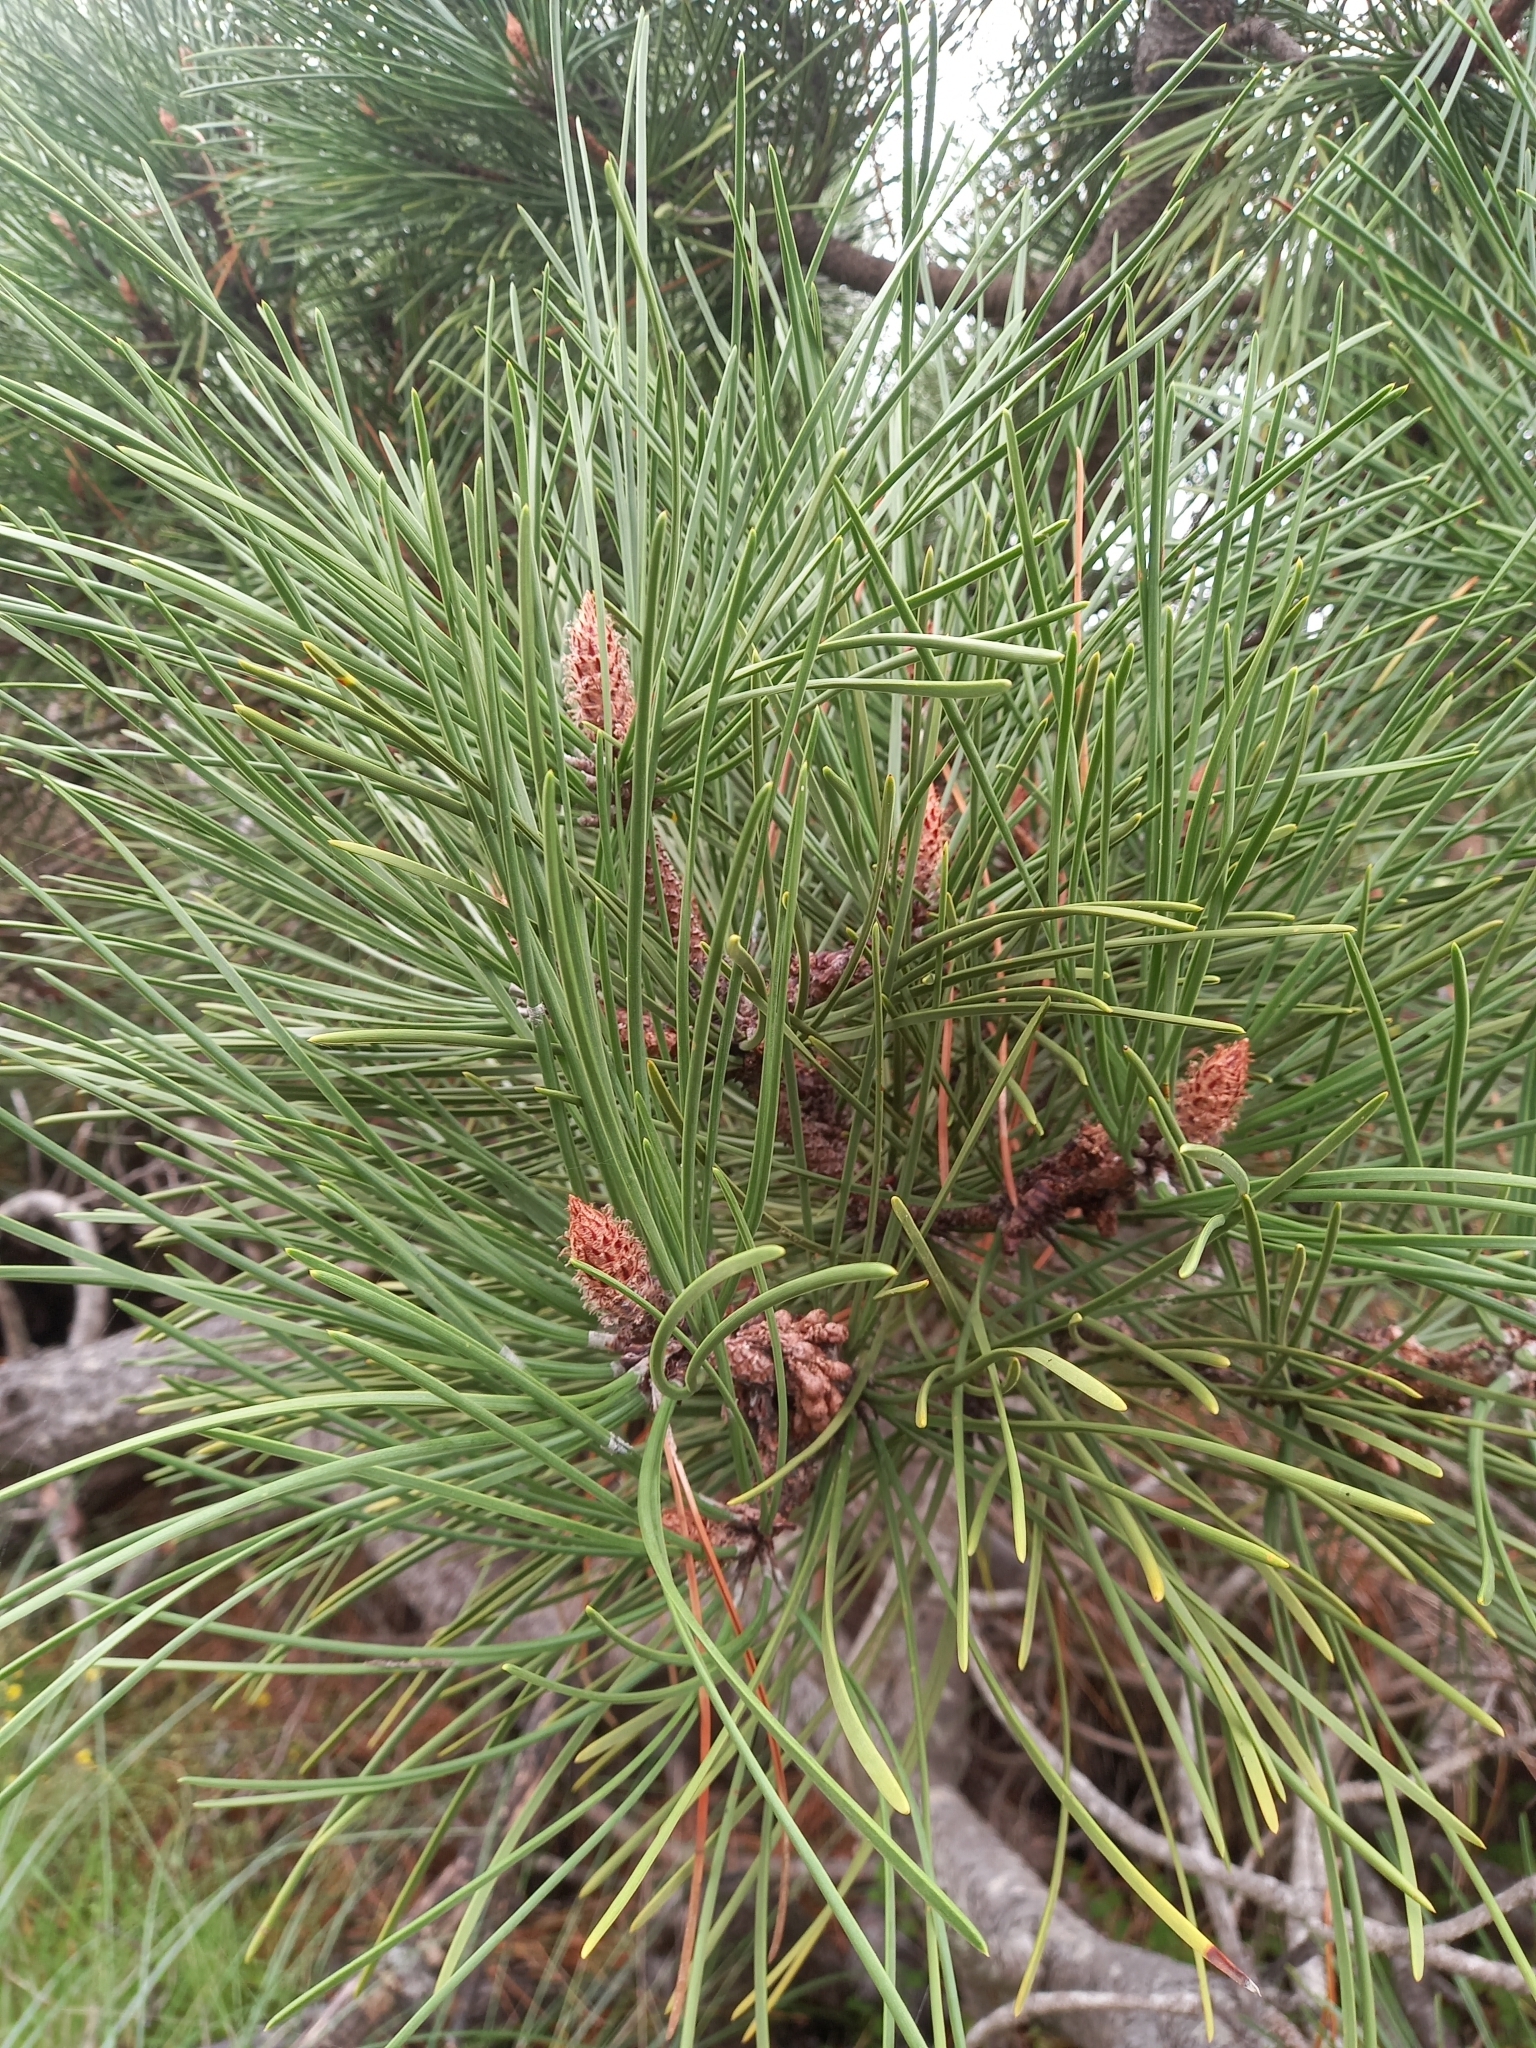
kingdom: Plantae
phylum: Tracheophyta
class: Pinopsida
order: Pinales
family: Pinaceae
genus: Pinus
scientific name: Pinus pinaster
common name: Maritime pine
